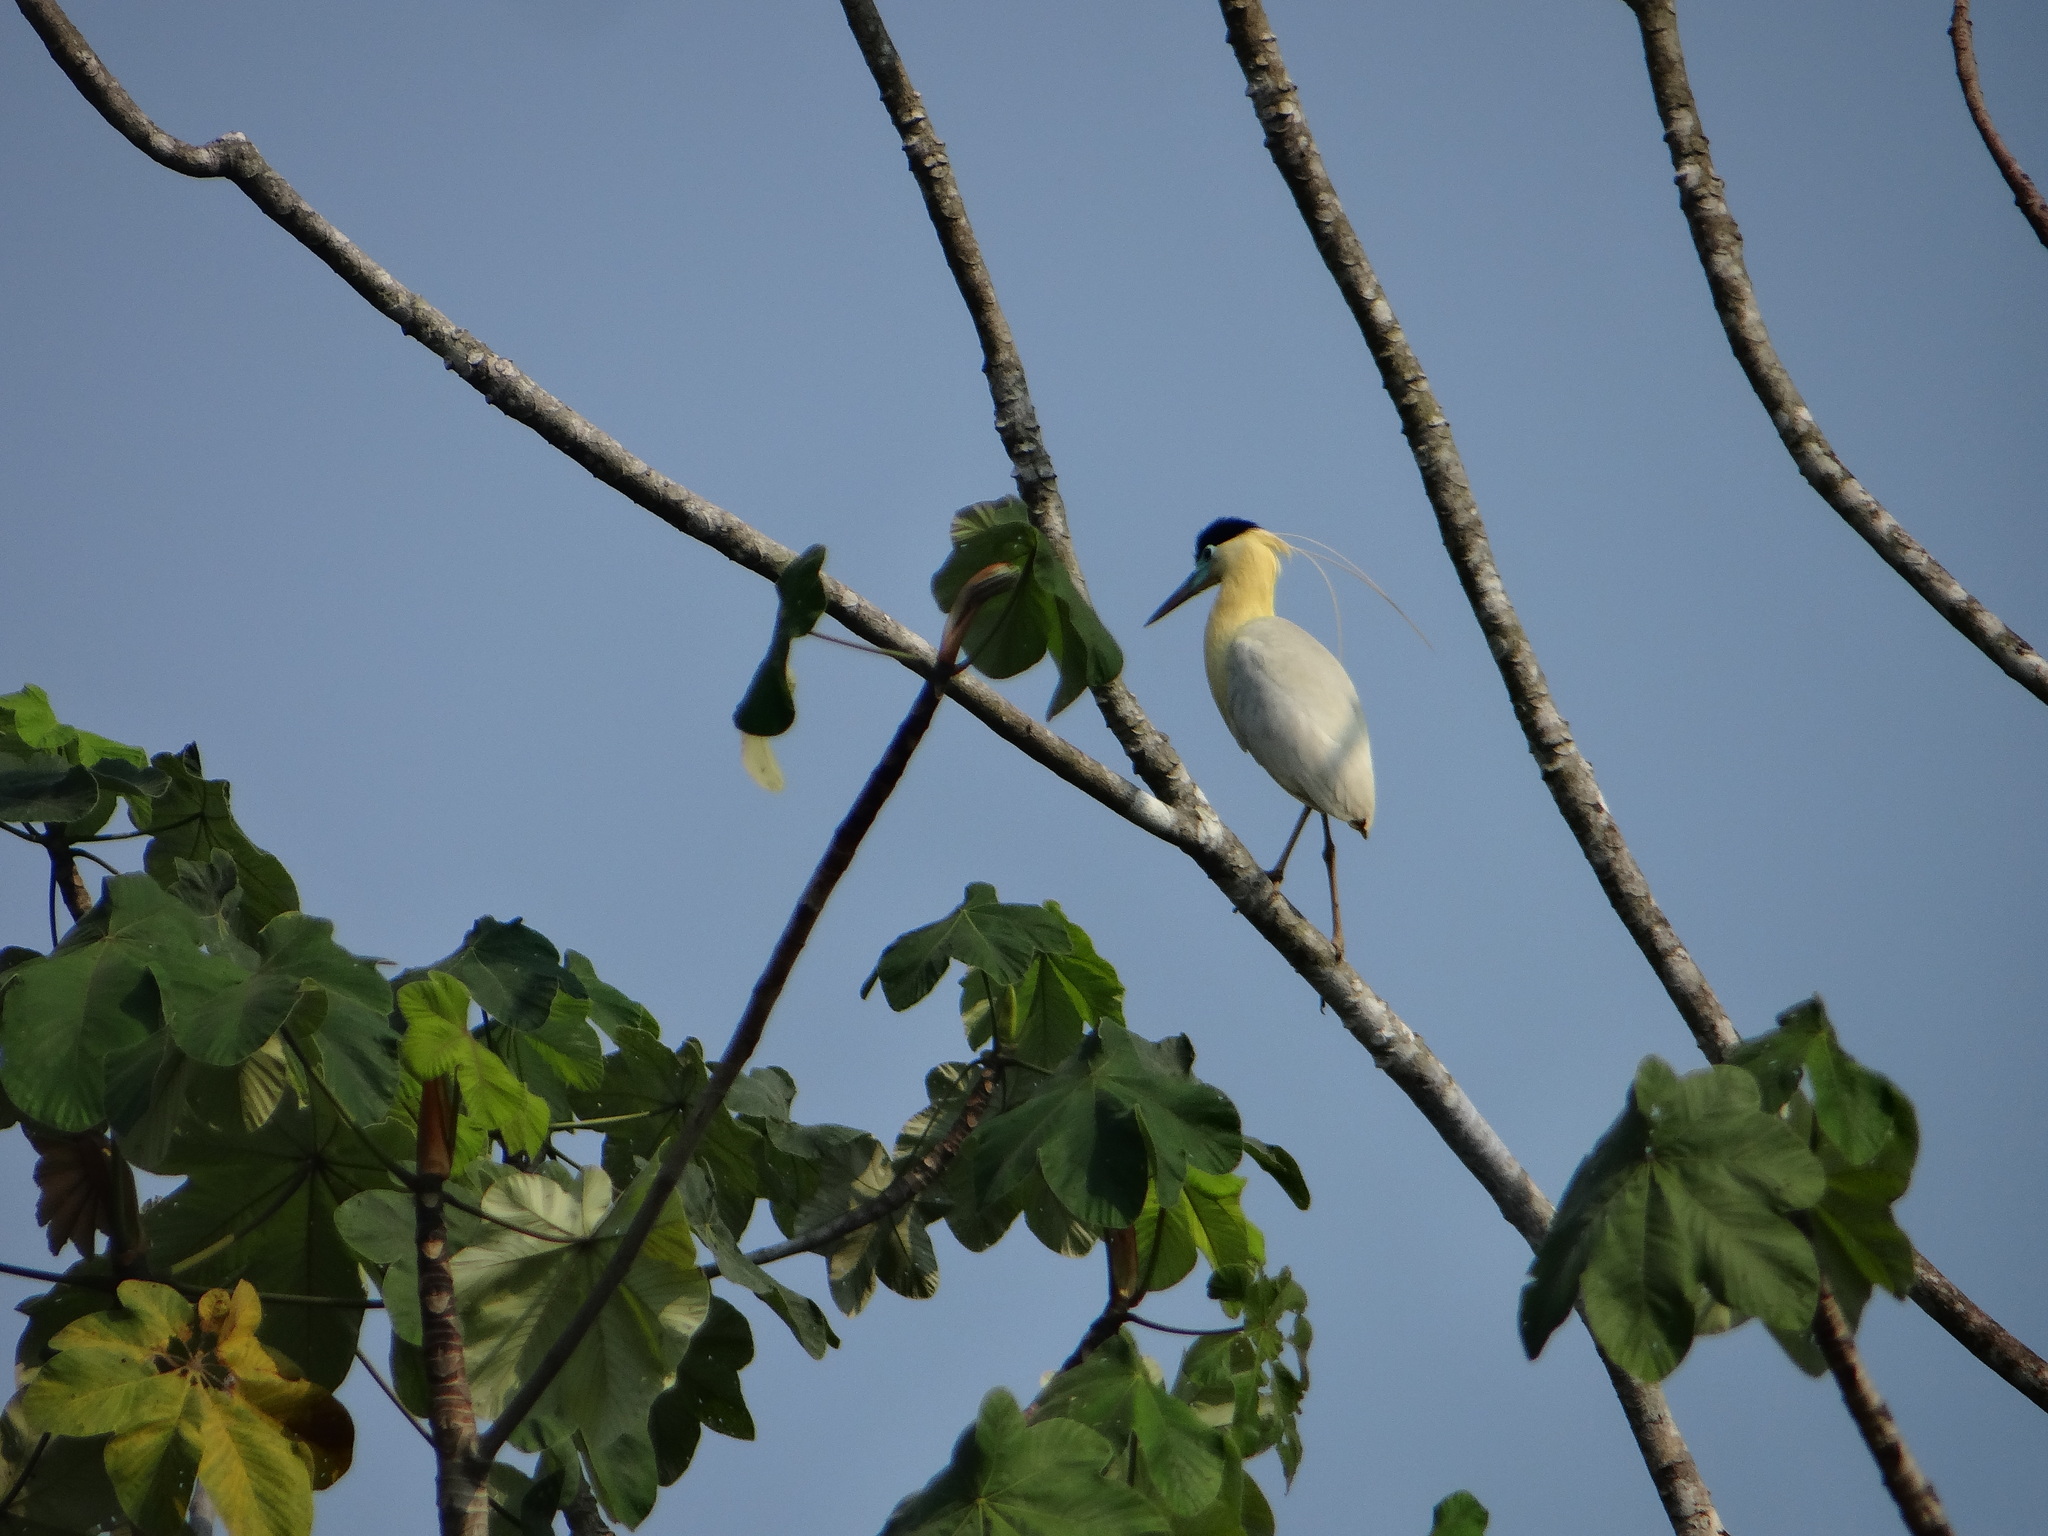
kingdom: Animalia
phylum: Chordata
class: Aves
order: Pelecaniformes
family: Ardeidae
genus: Pilherodius
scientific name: Pilherodius pileatus
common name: Capped heron
